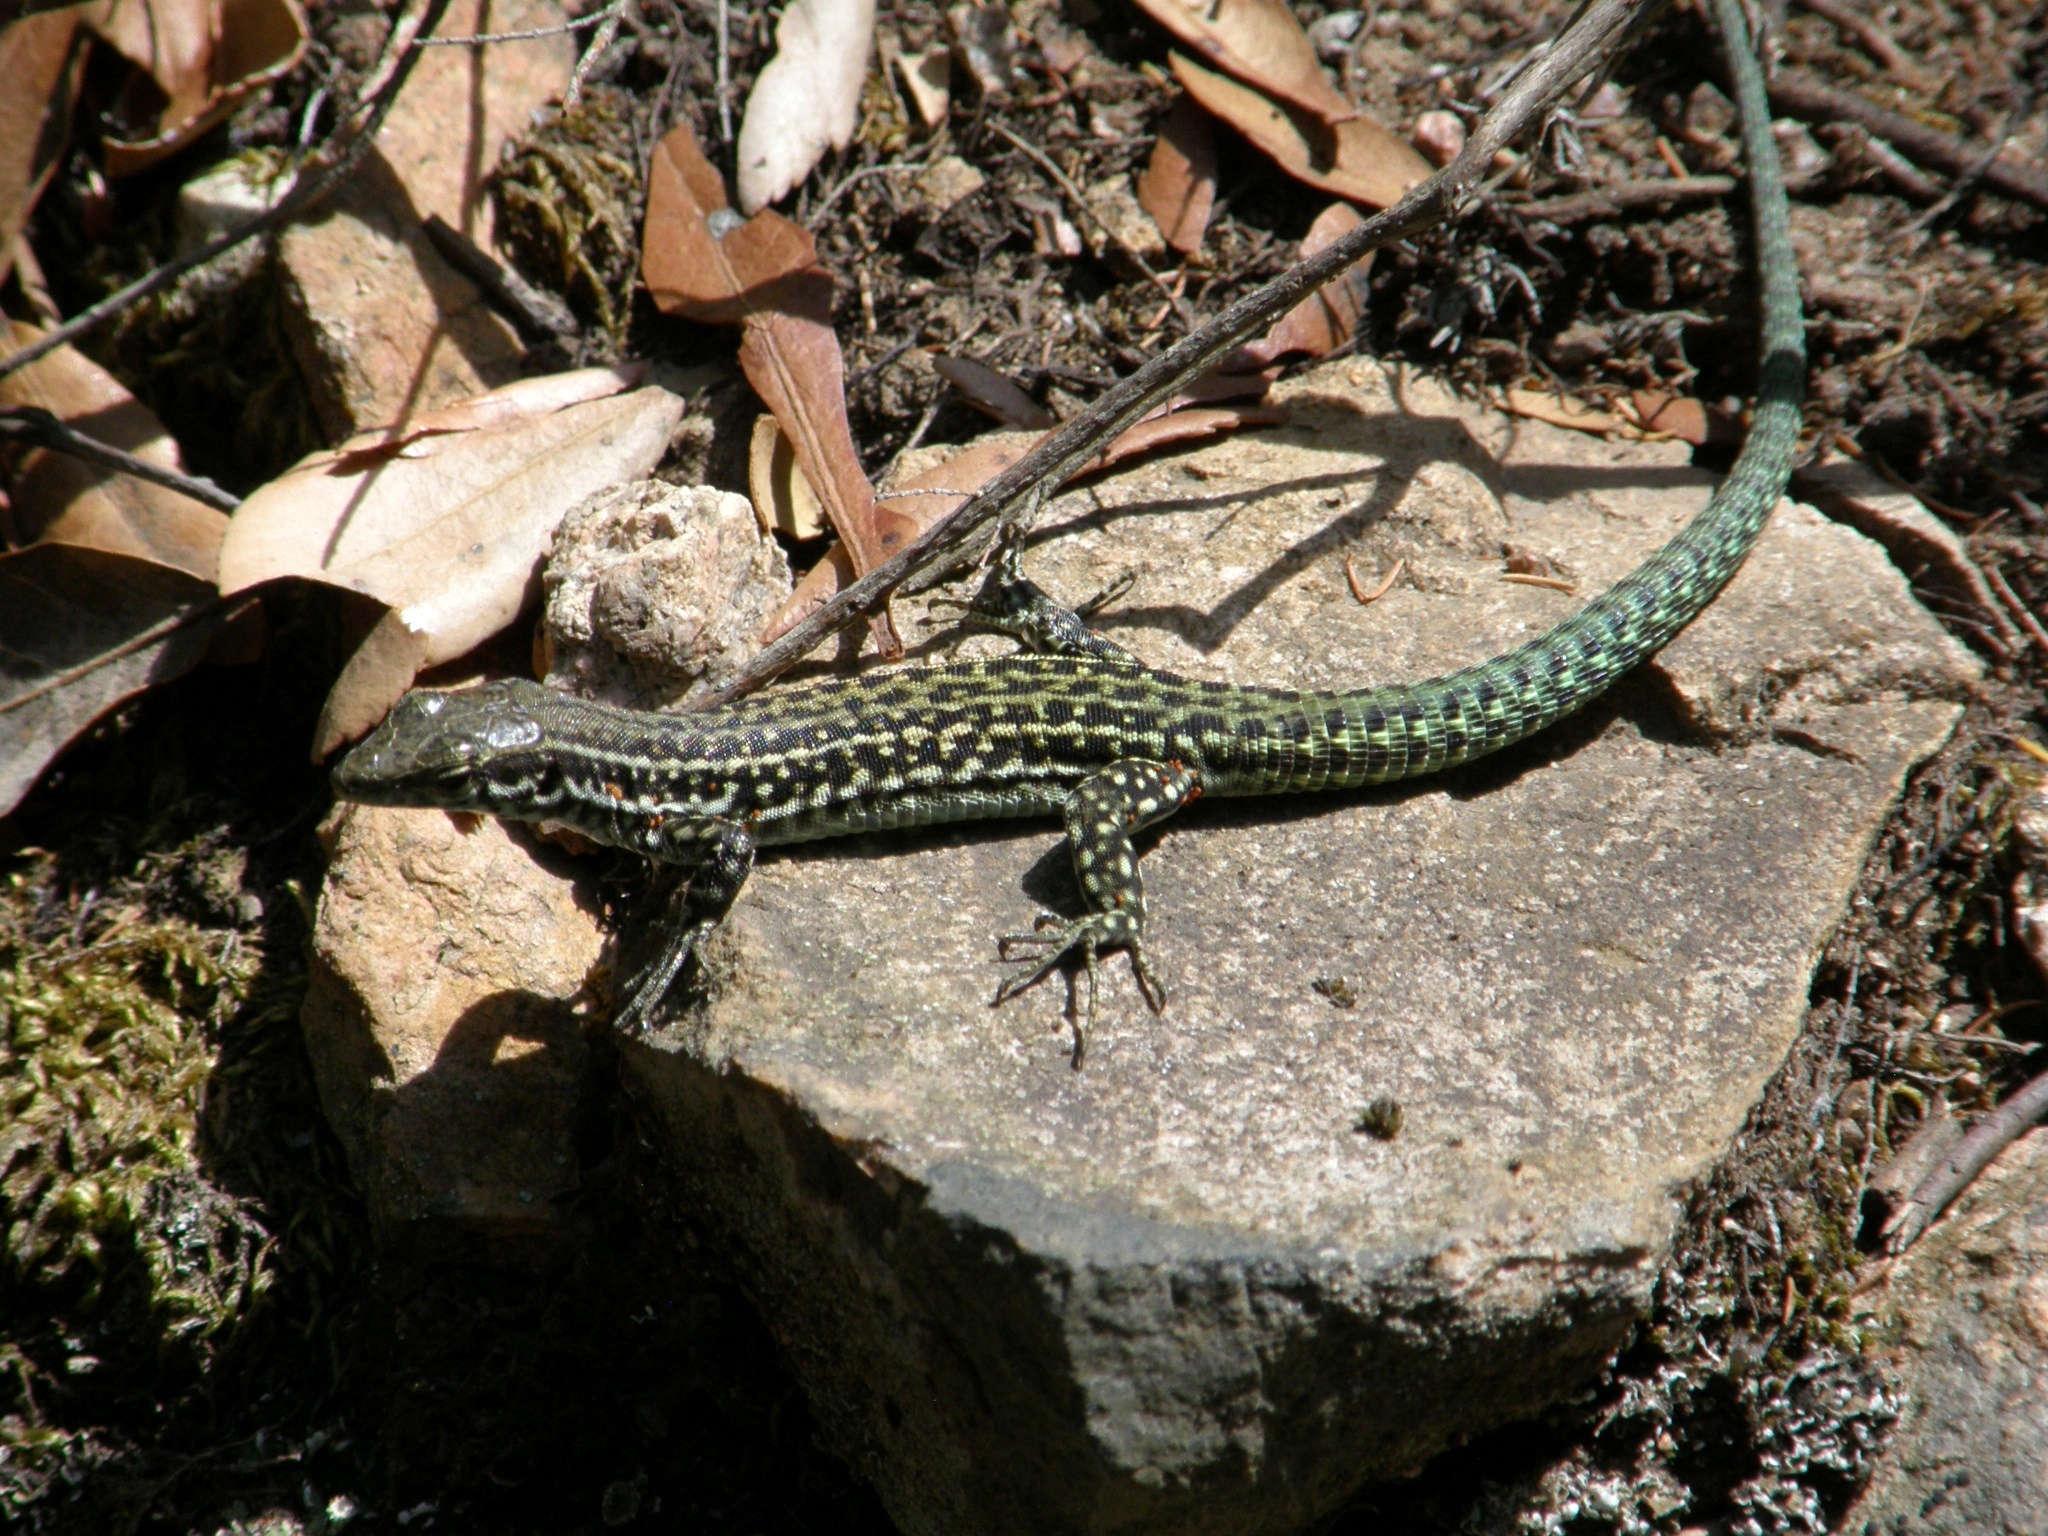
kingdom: Animalia
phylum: Chordata
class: Squamata
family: Lacertidae
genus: Podarcis
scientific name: Podarcis tiliguerta
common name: Tyrrhenian wall lizard
